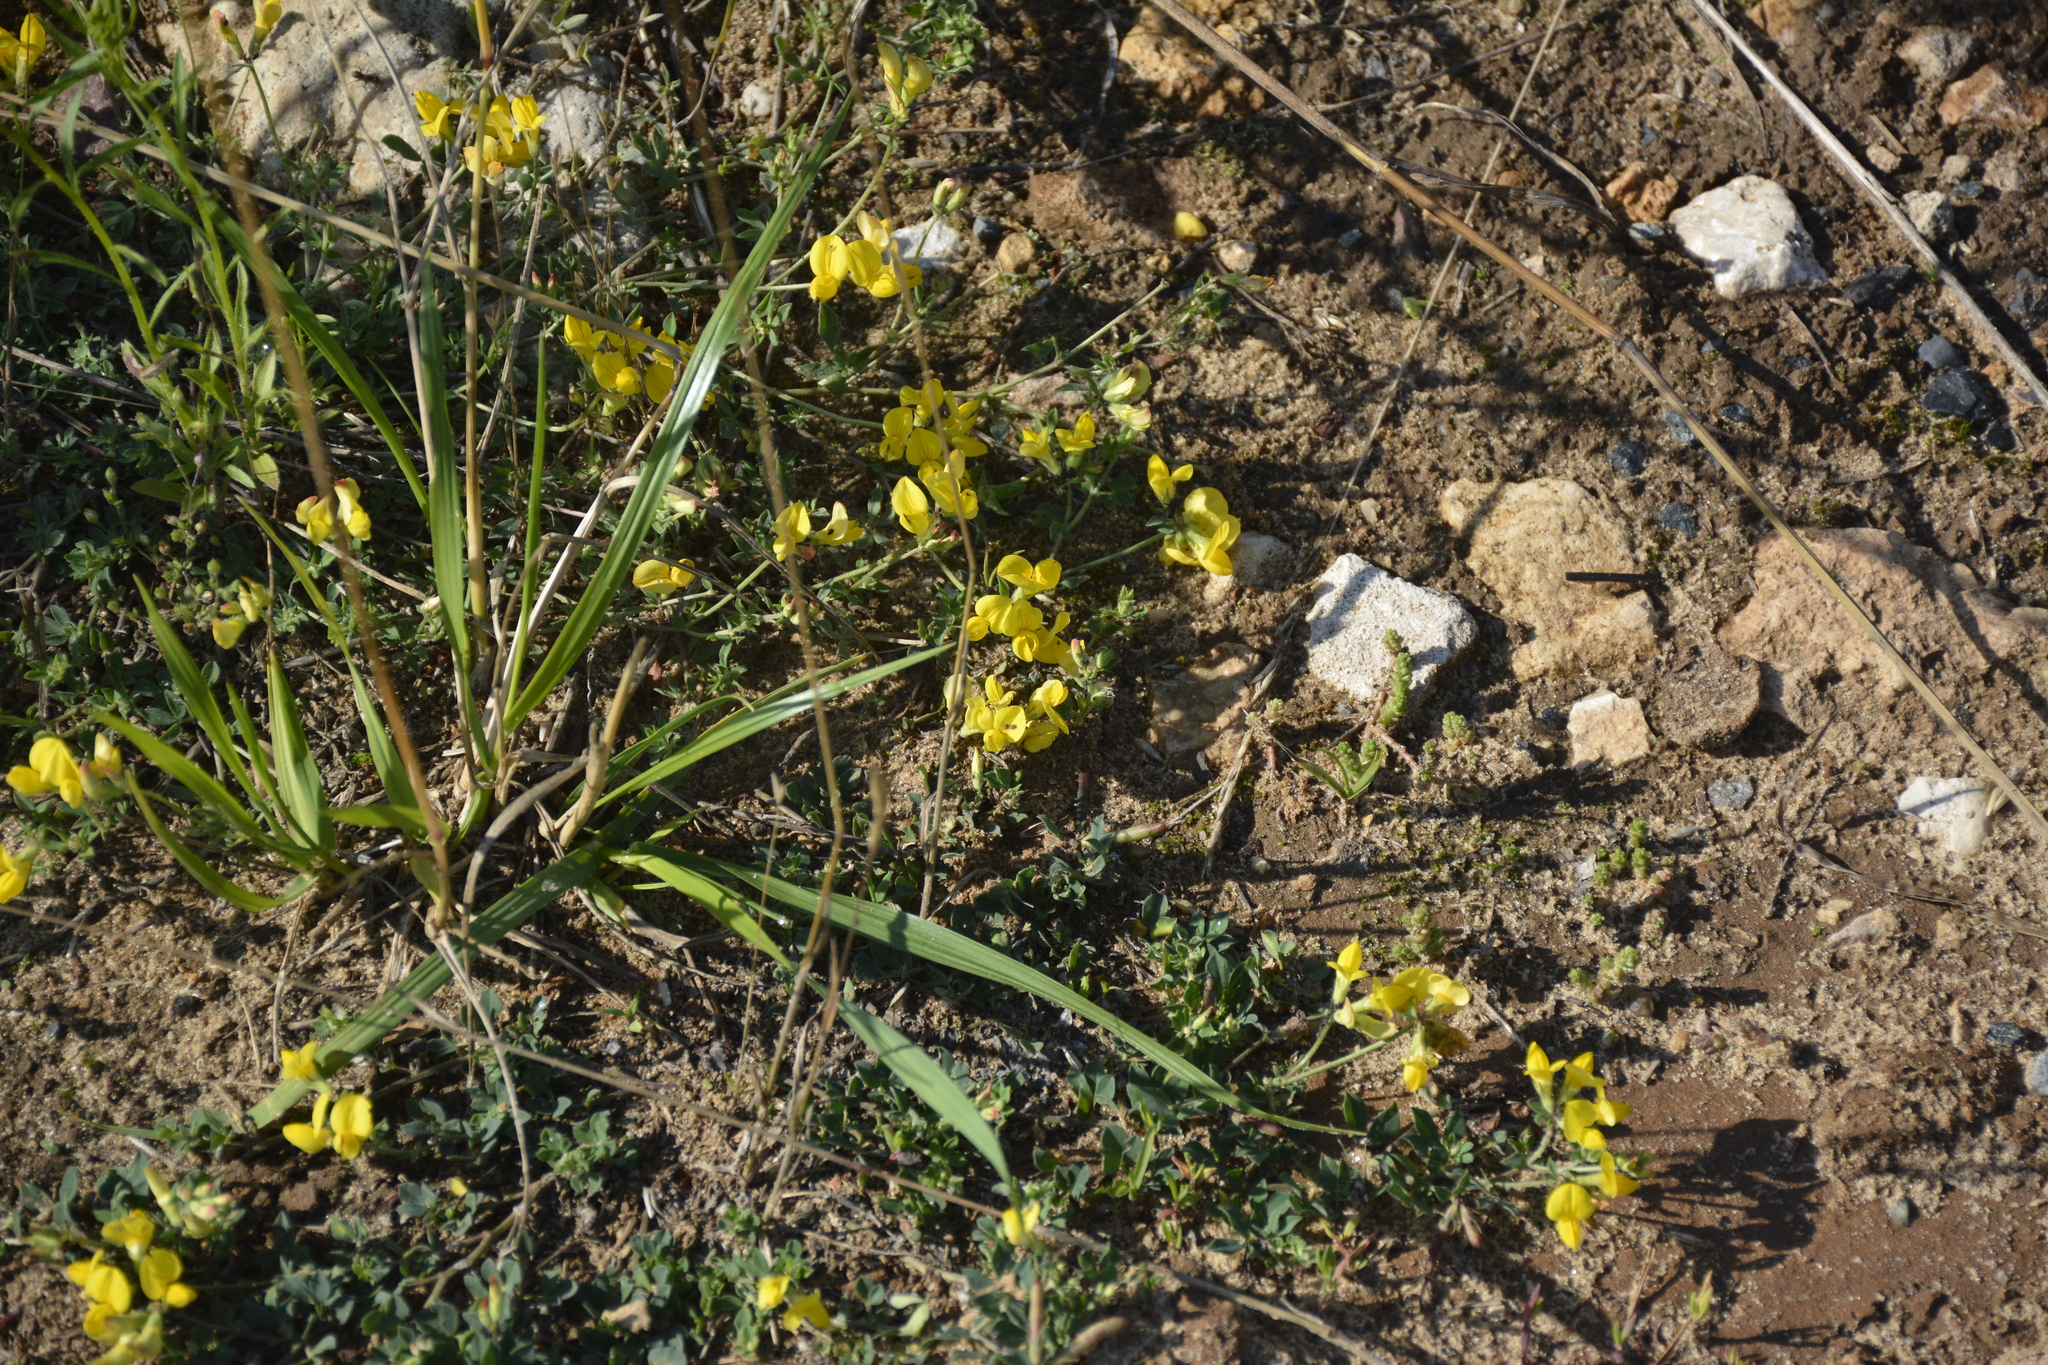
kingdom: Plantae
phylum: Tracheophyta
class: Magnoliopsida
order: Fabales
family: Fabaceae
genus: Lotus
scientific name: Lotus corniculatus
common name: Common bird's-foot-trefoil
